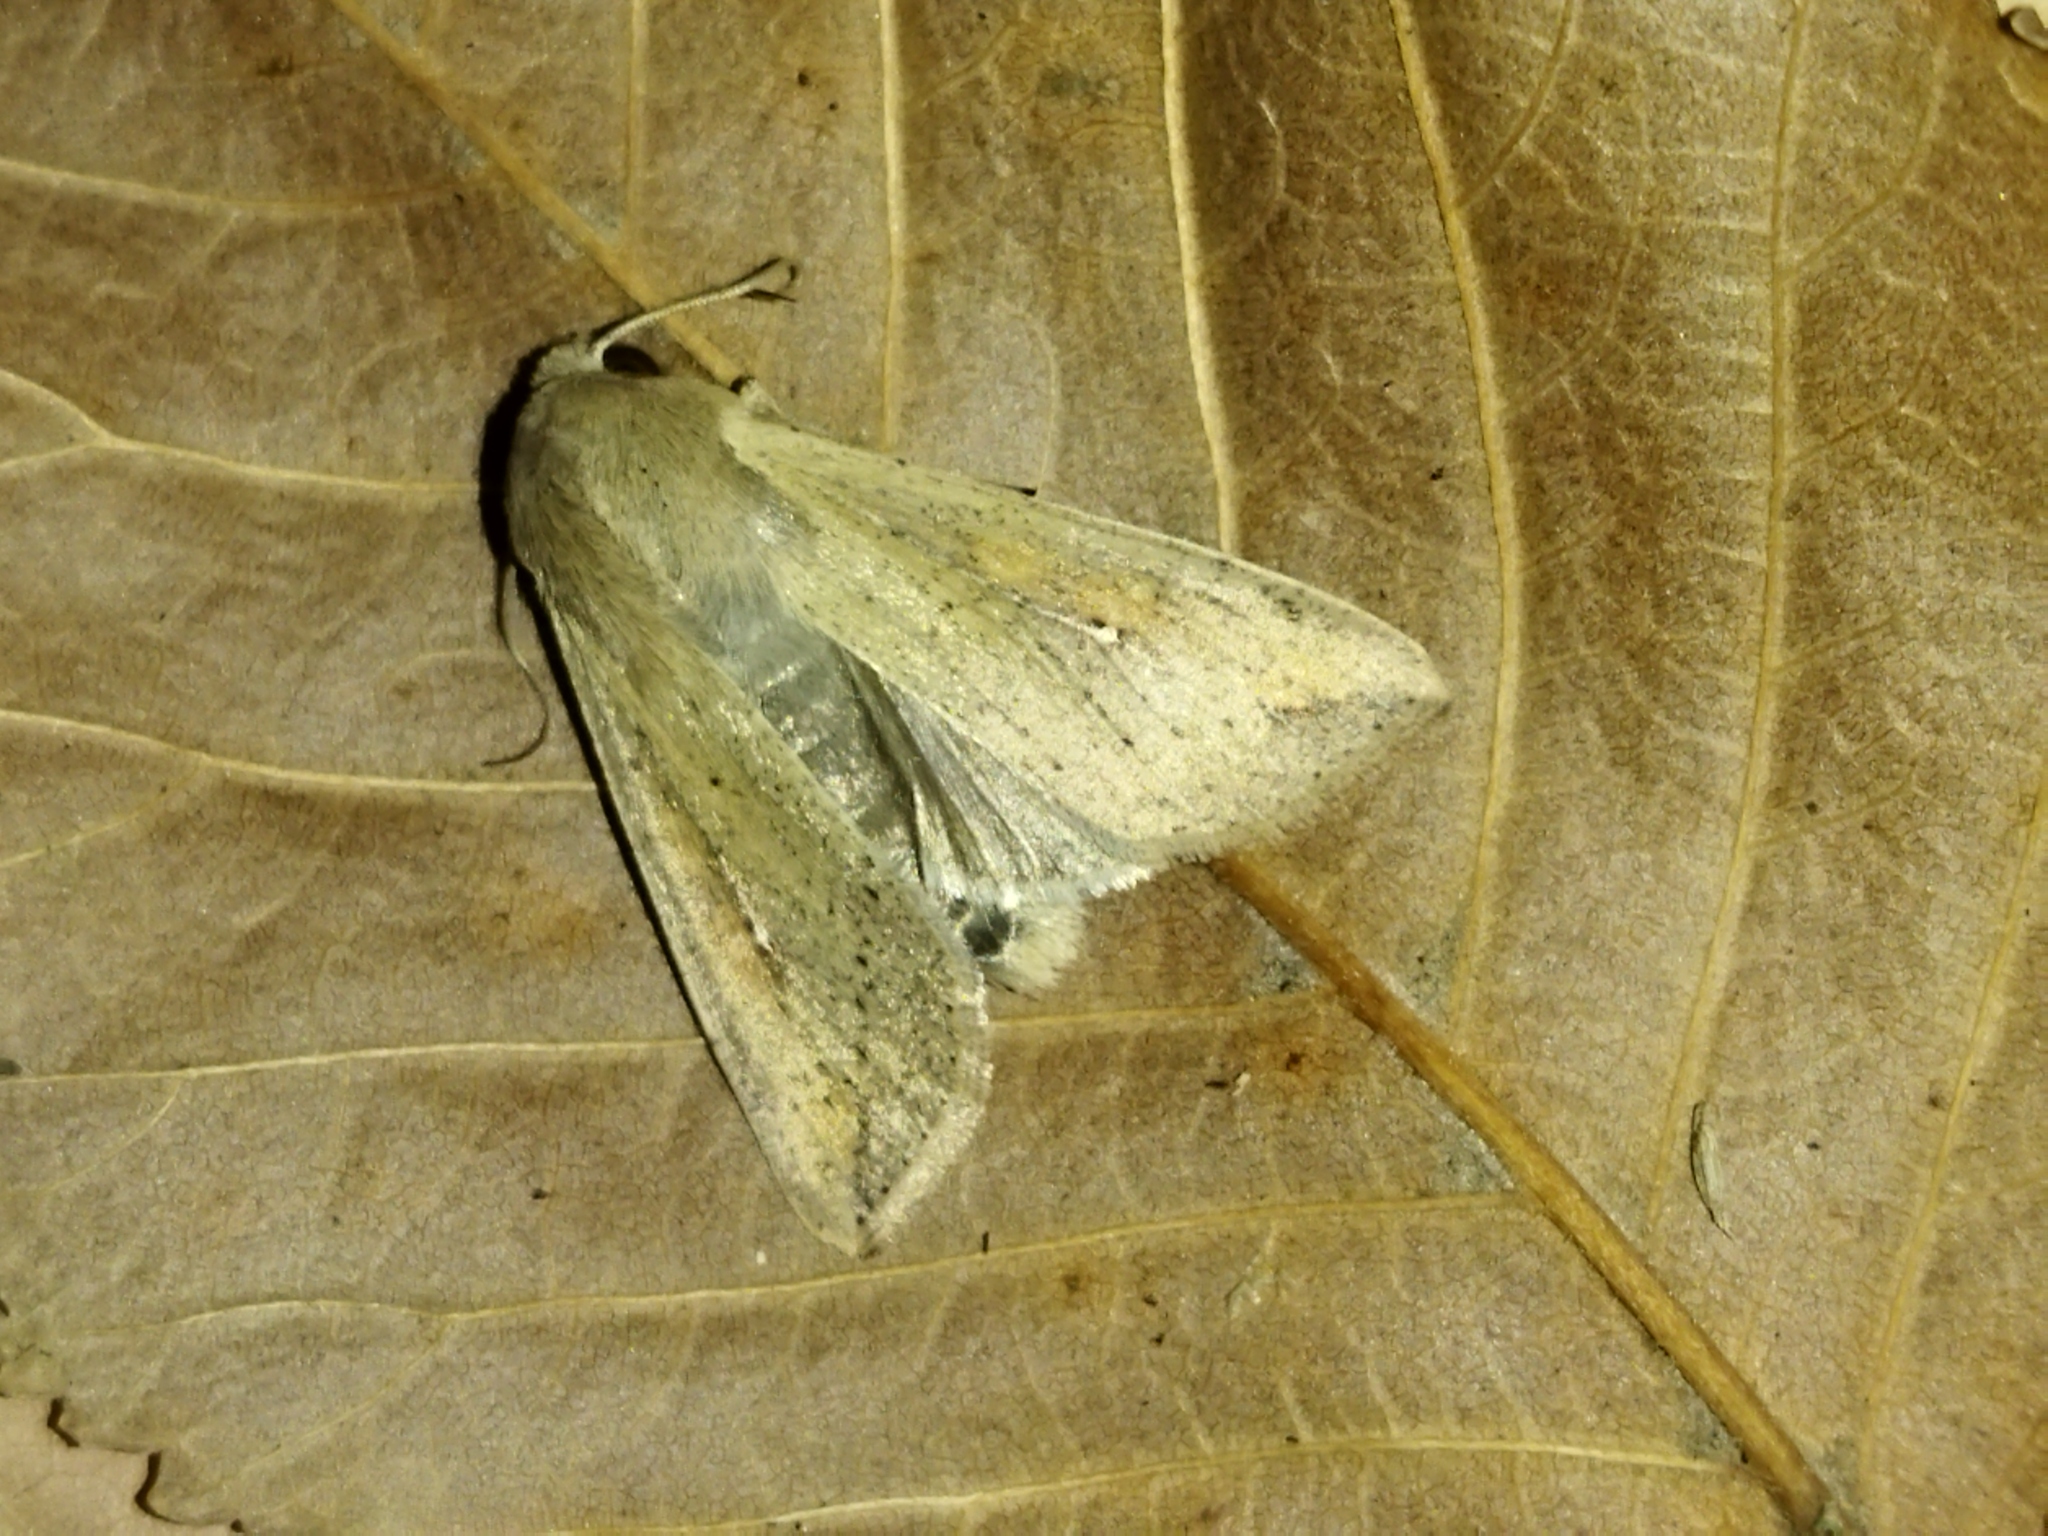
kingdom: Animalia
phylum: Arthropoda
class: Insecta
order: Lepidoptera
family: Noctuidae
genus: Mythimna
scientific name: Mythimna unipuncta
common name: White-speck
